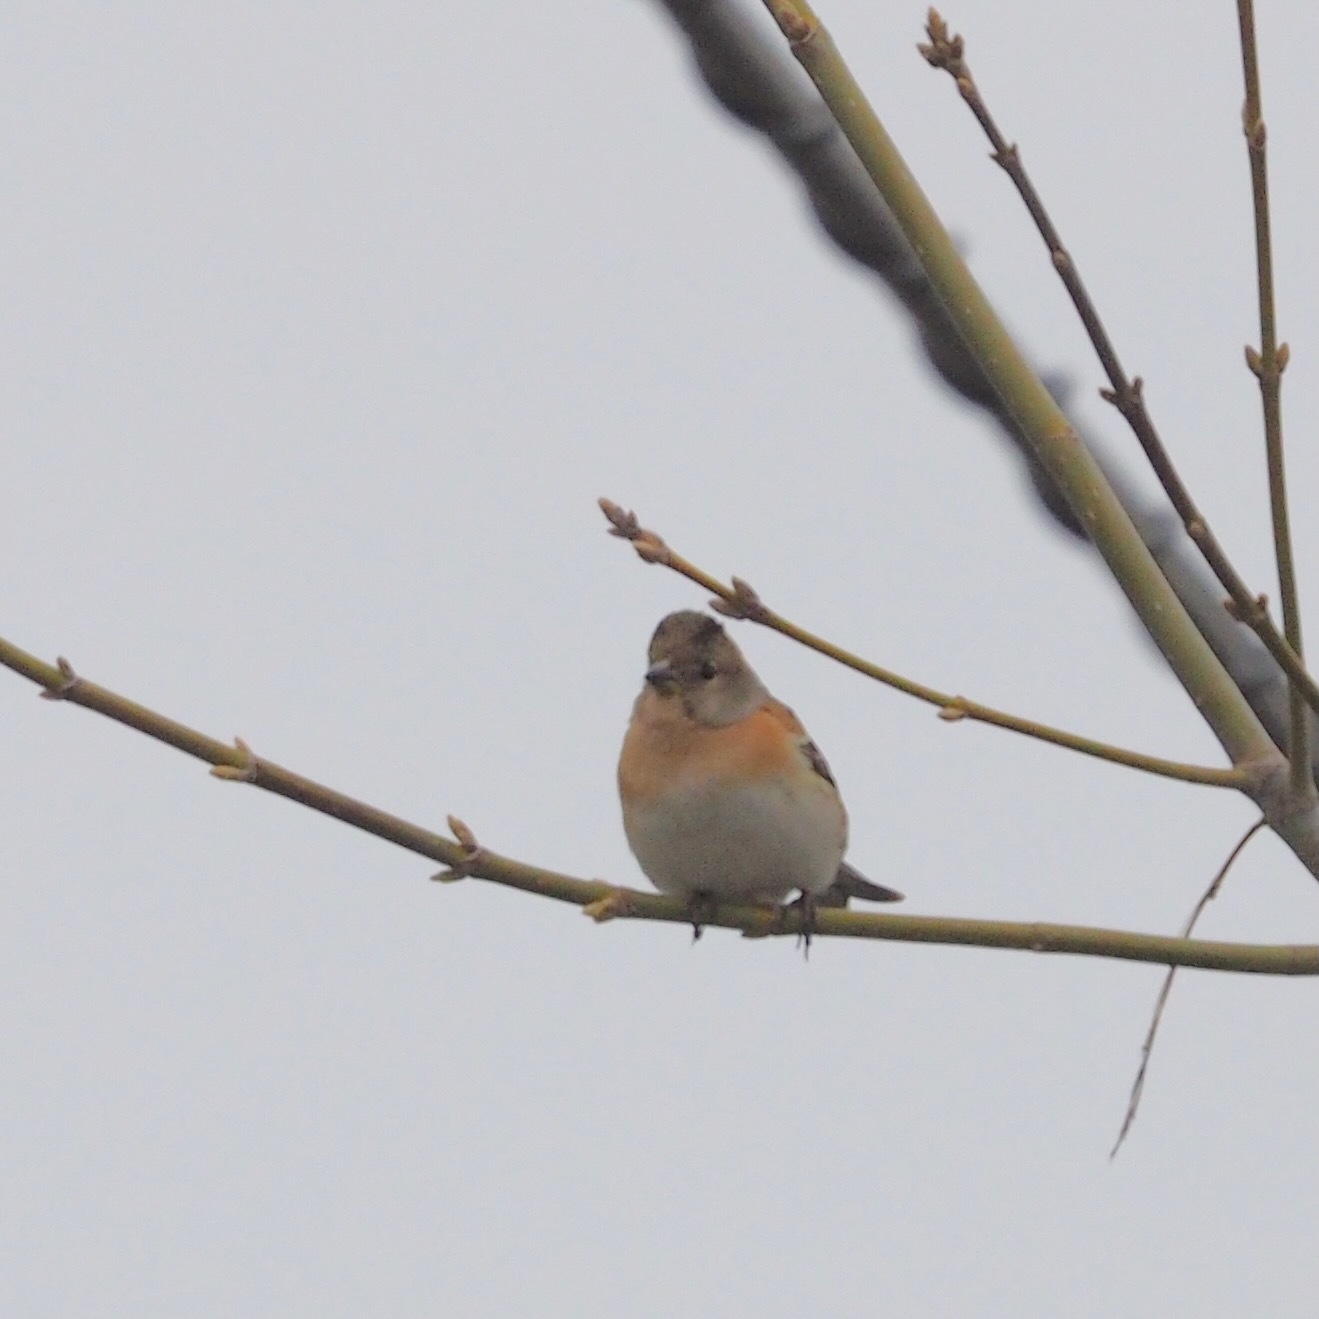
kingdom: Animalia
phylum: Chordata
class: Aves
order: Passeriformes
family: Fringillidae
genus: Fringilla
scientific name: Fringilla montifringilla
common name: Brambling
